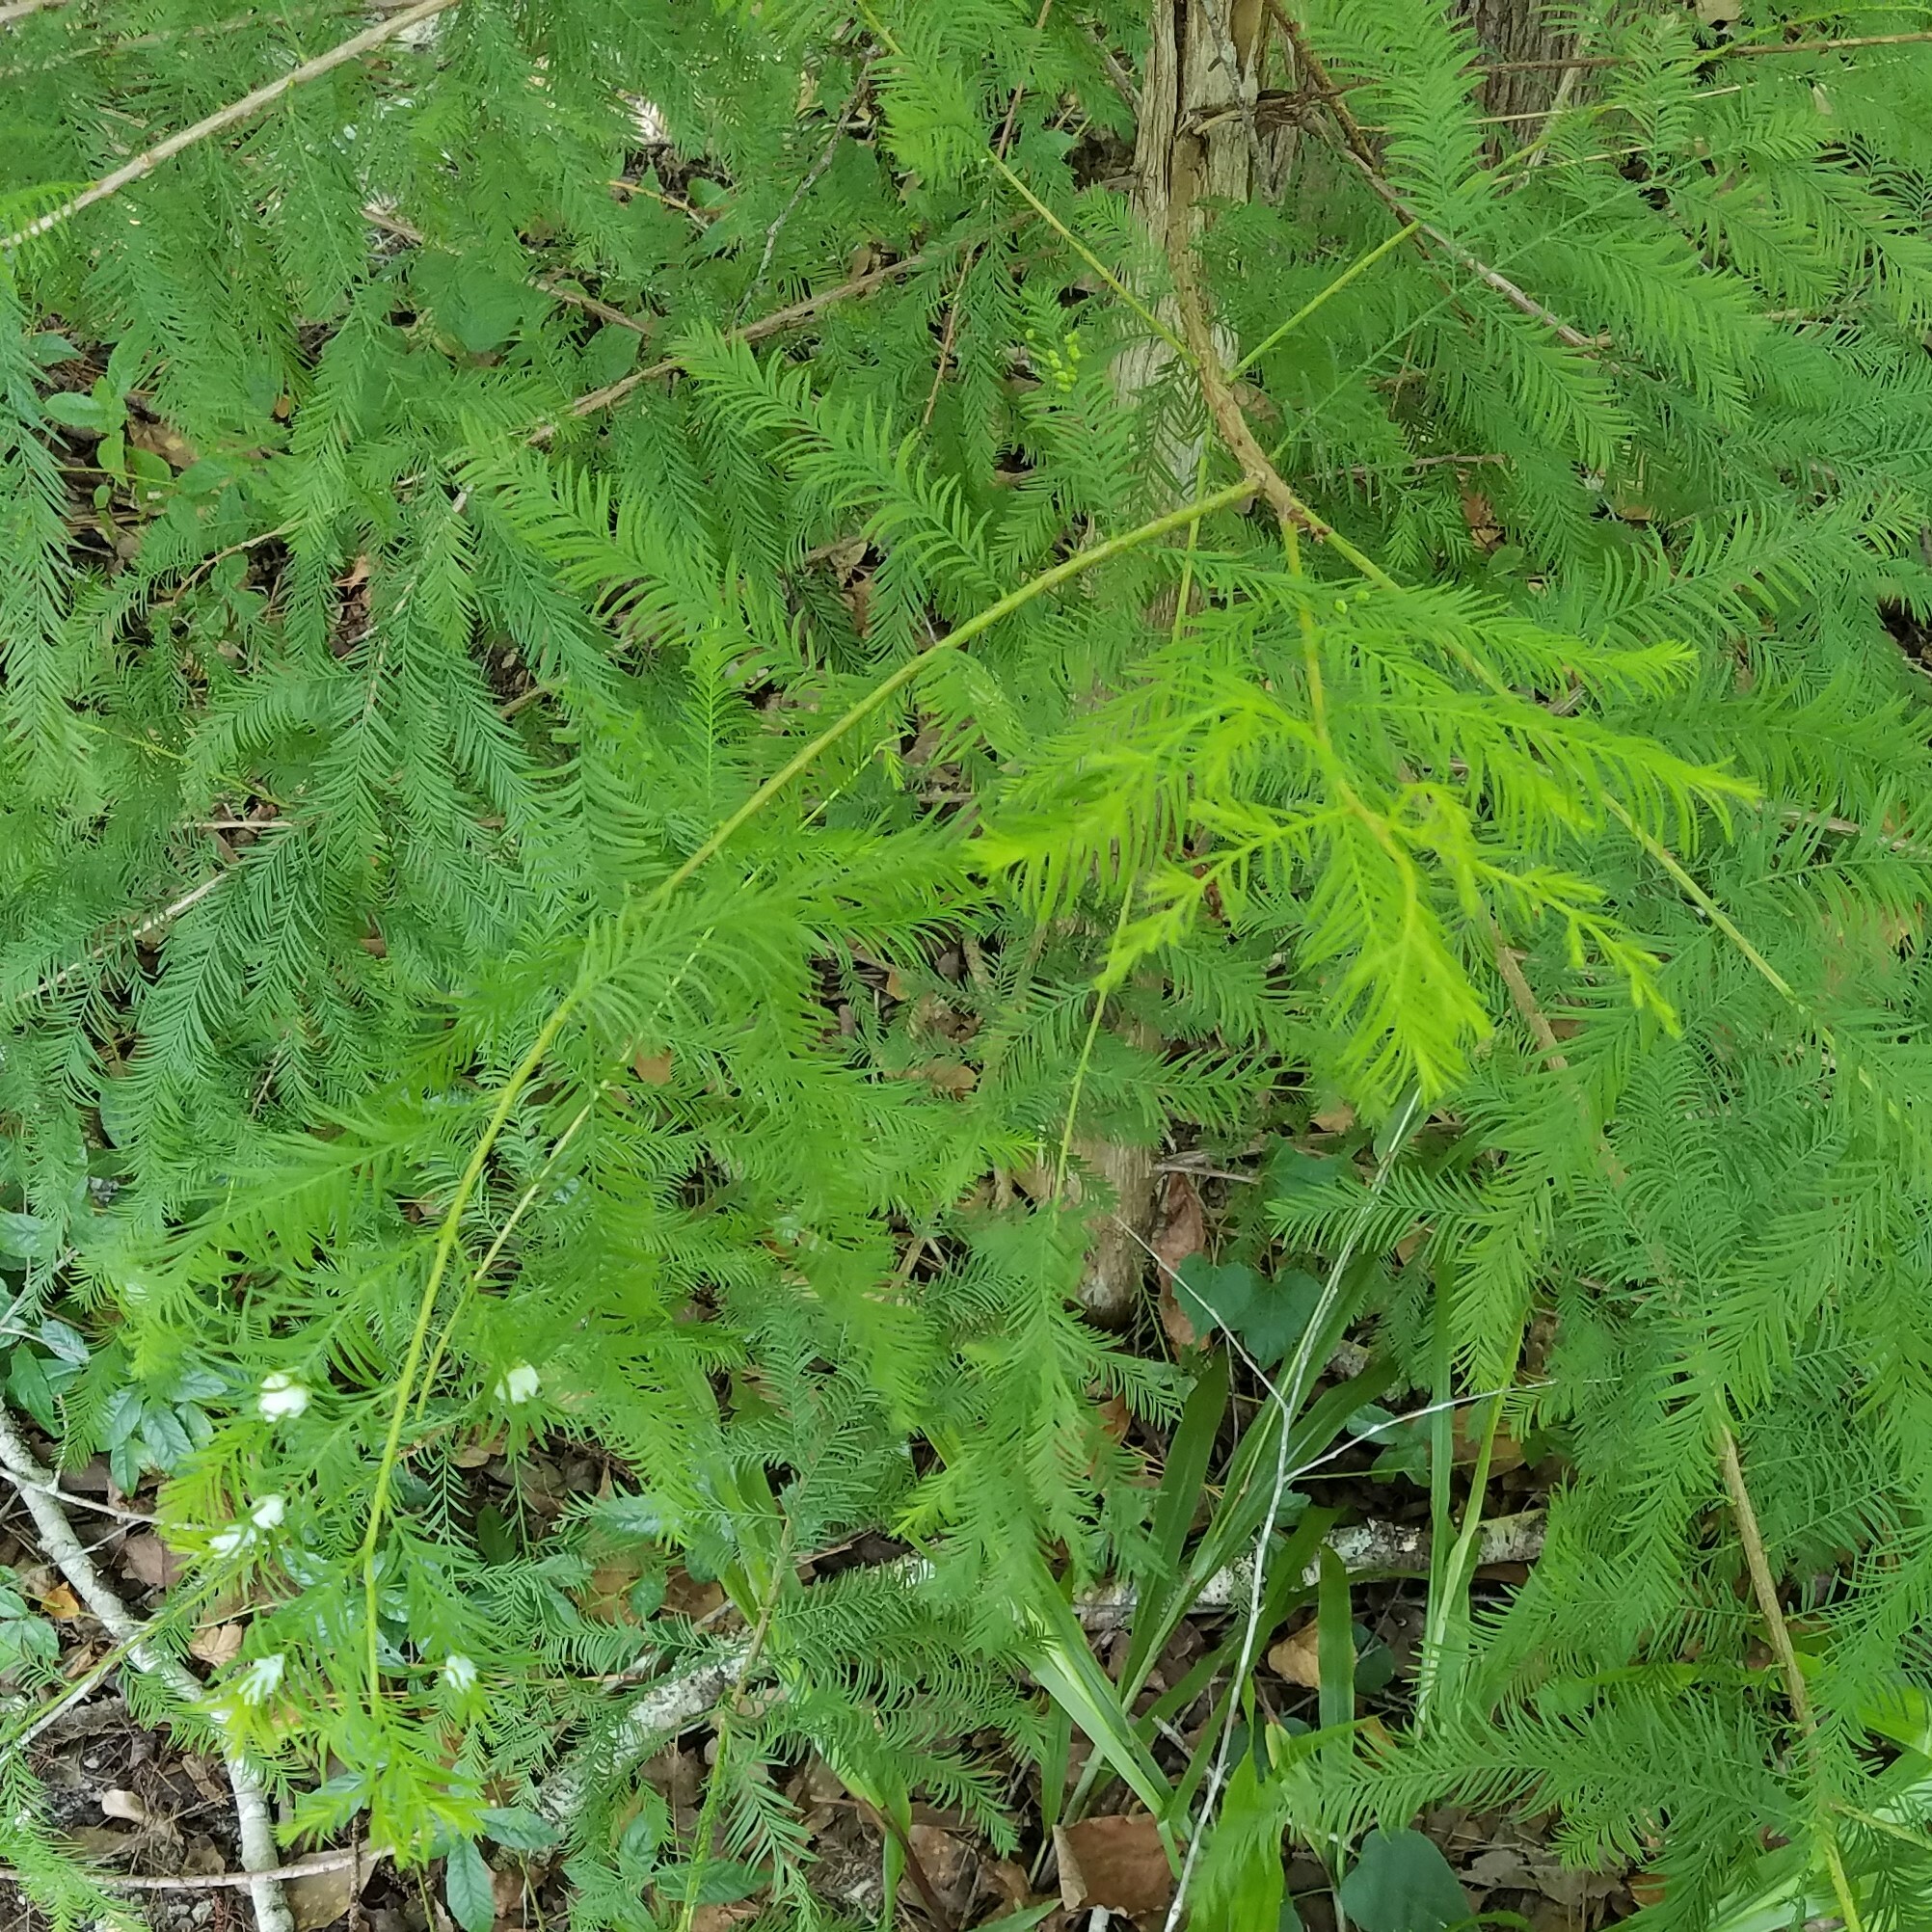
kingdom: Animalia
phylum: Arthropoda
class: Insecta
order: Diptera
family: Cecidomyiidae
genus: Taxodiomyia
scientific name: Taxodiomyia cupressiananassa
